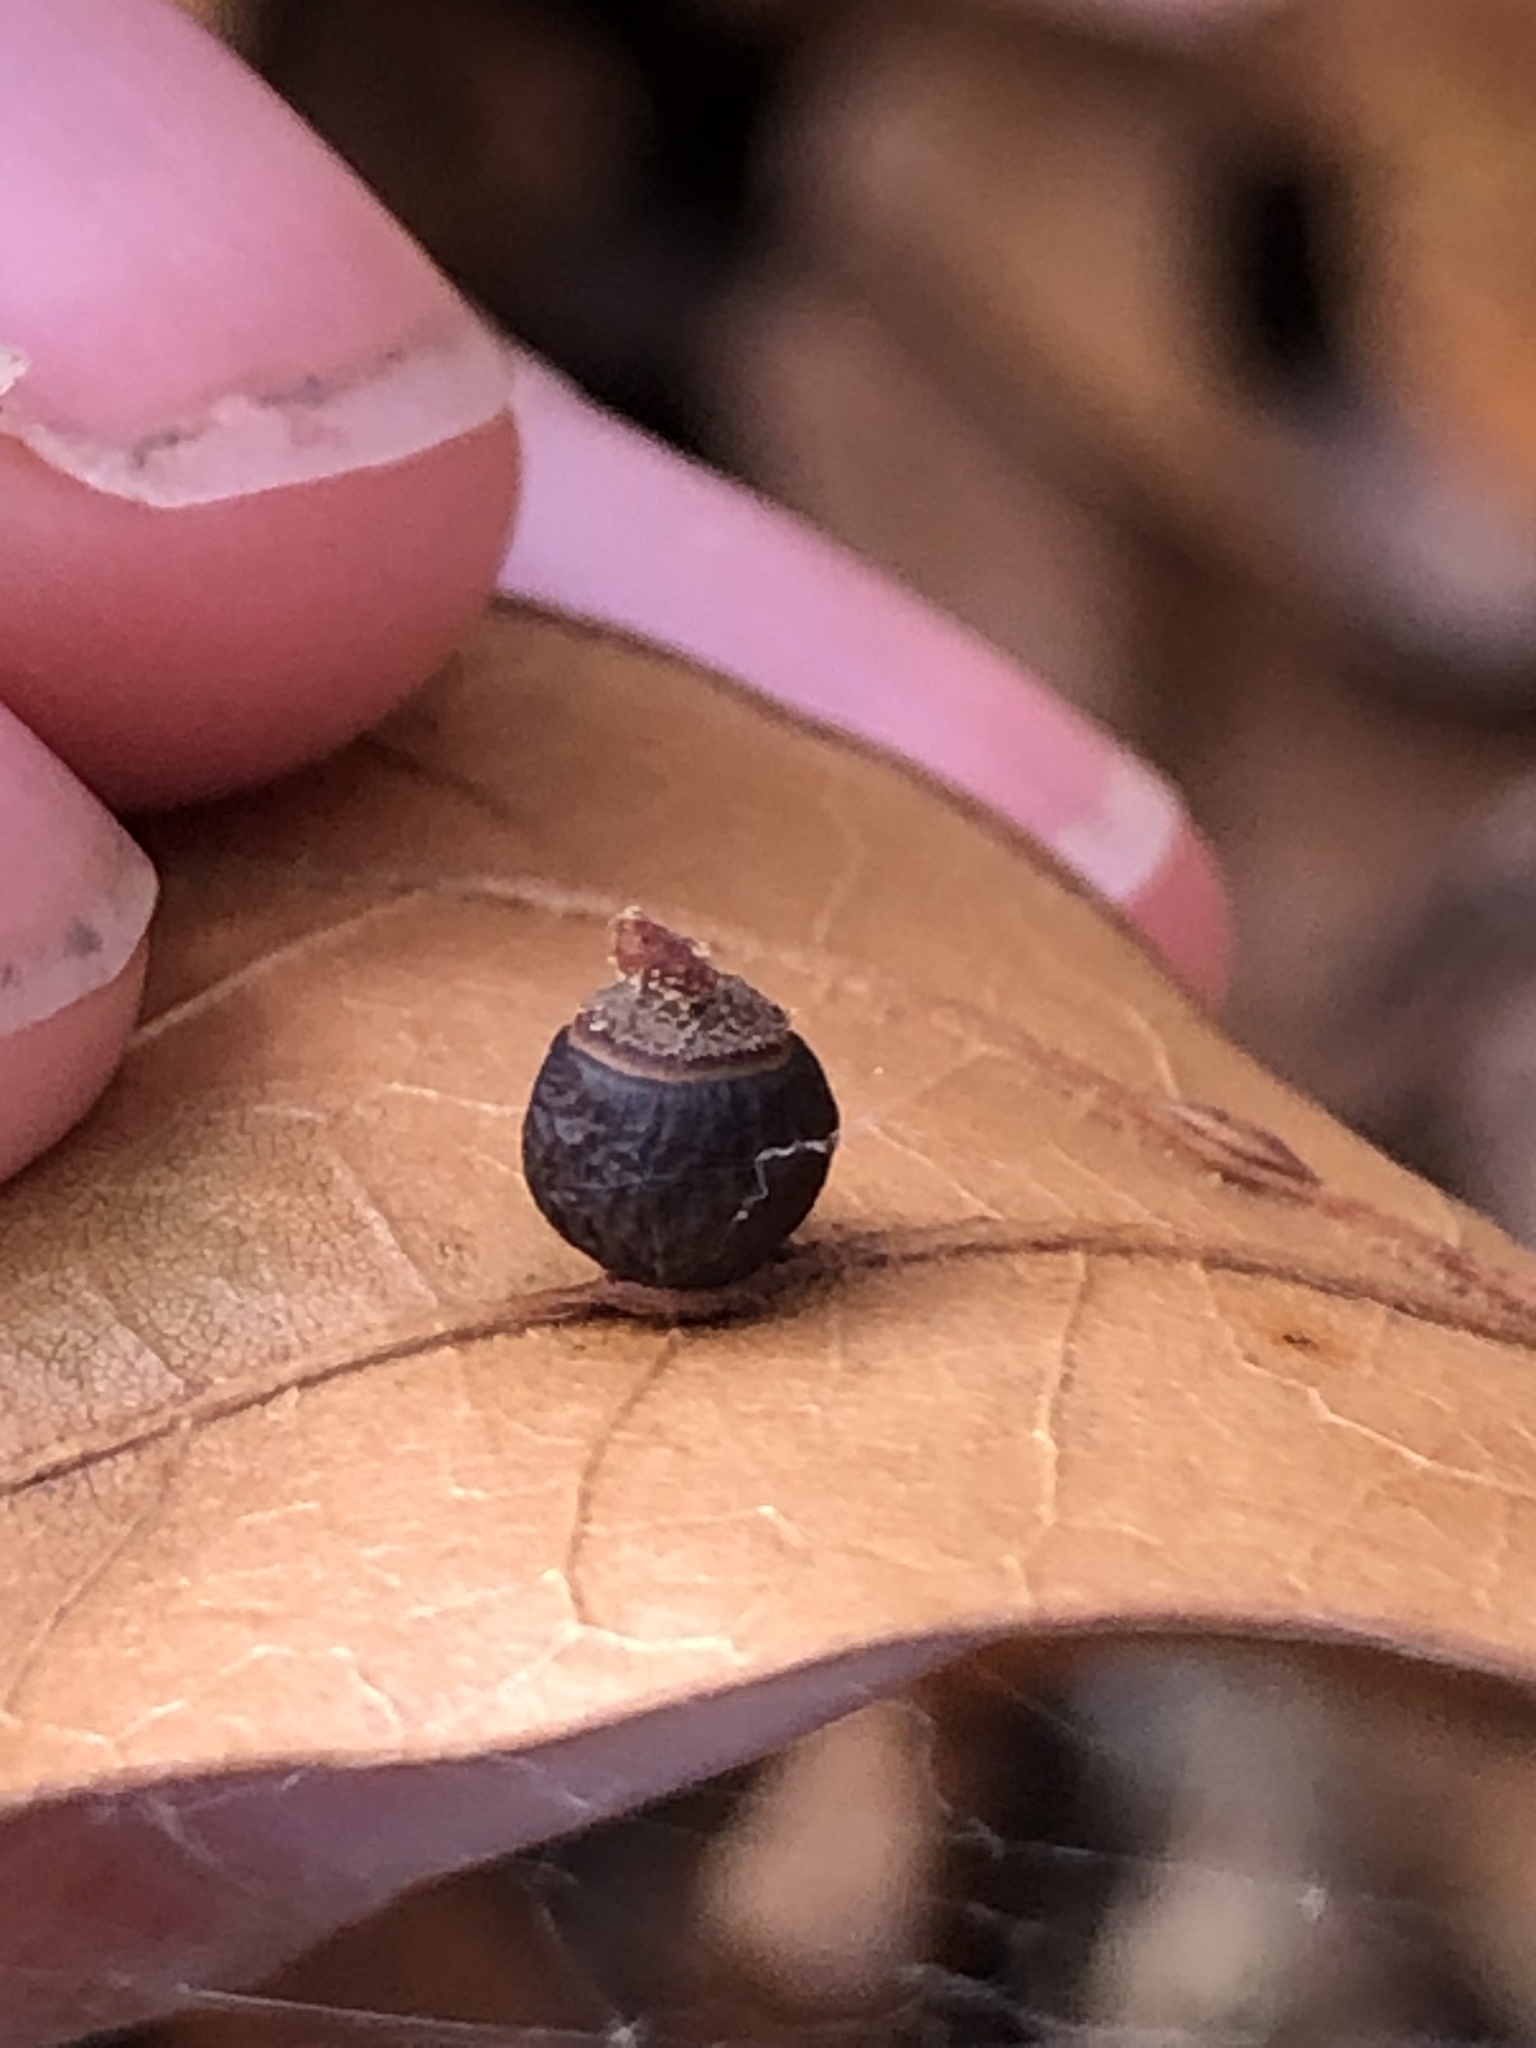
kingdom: Animalia
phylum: Arthropoda
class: Insecta
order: Hymenoptera
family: Cynipidae
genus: Kokkocynips
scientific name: Kokkocynips rileyi
